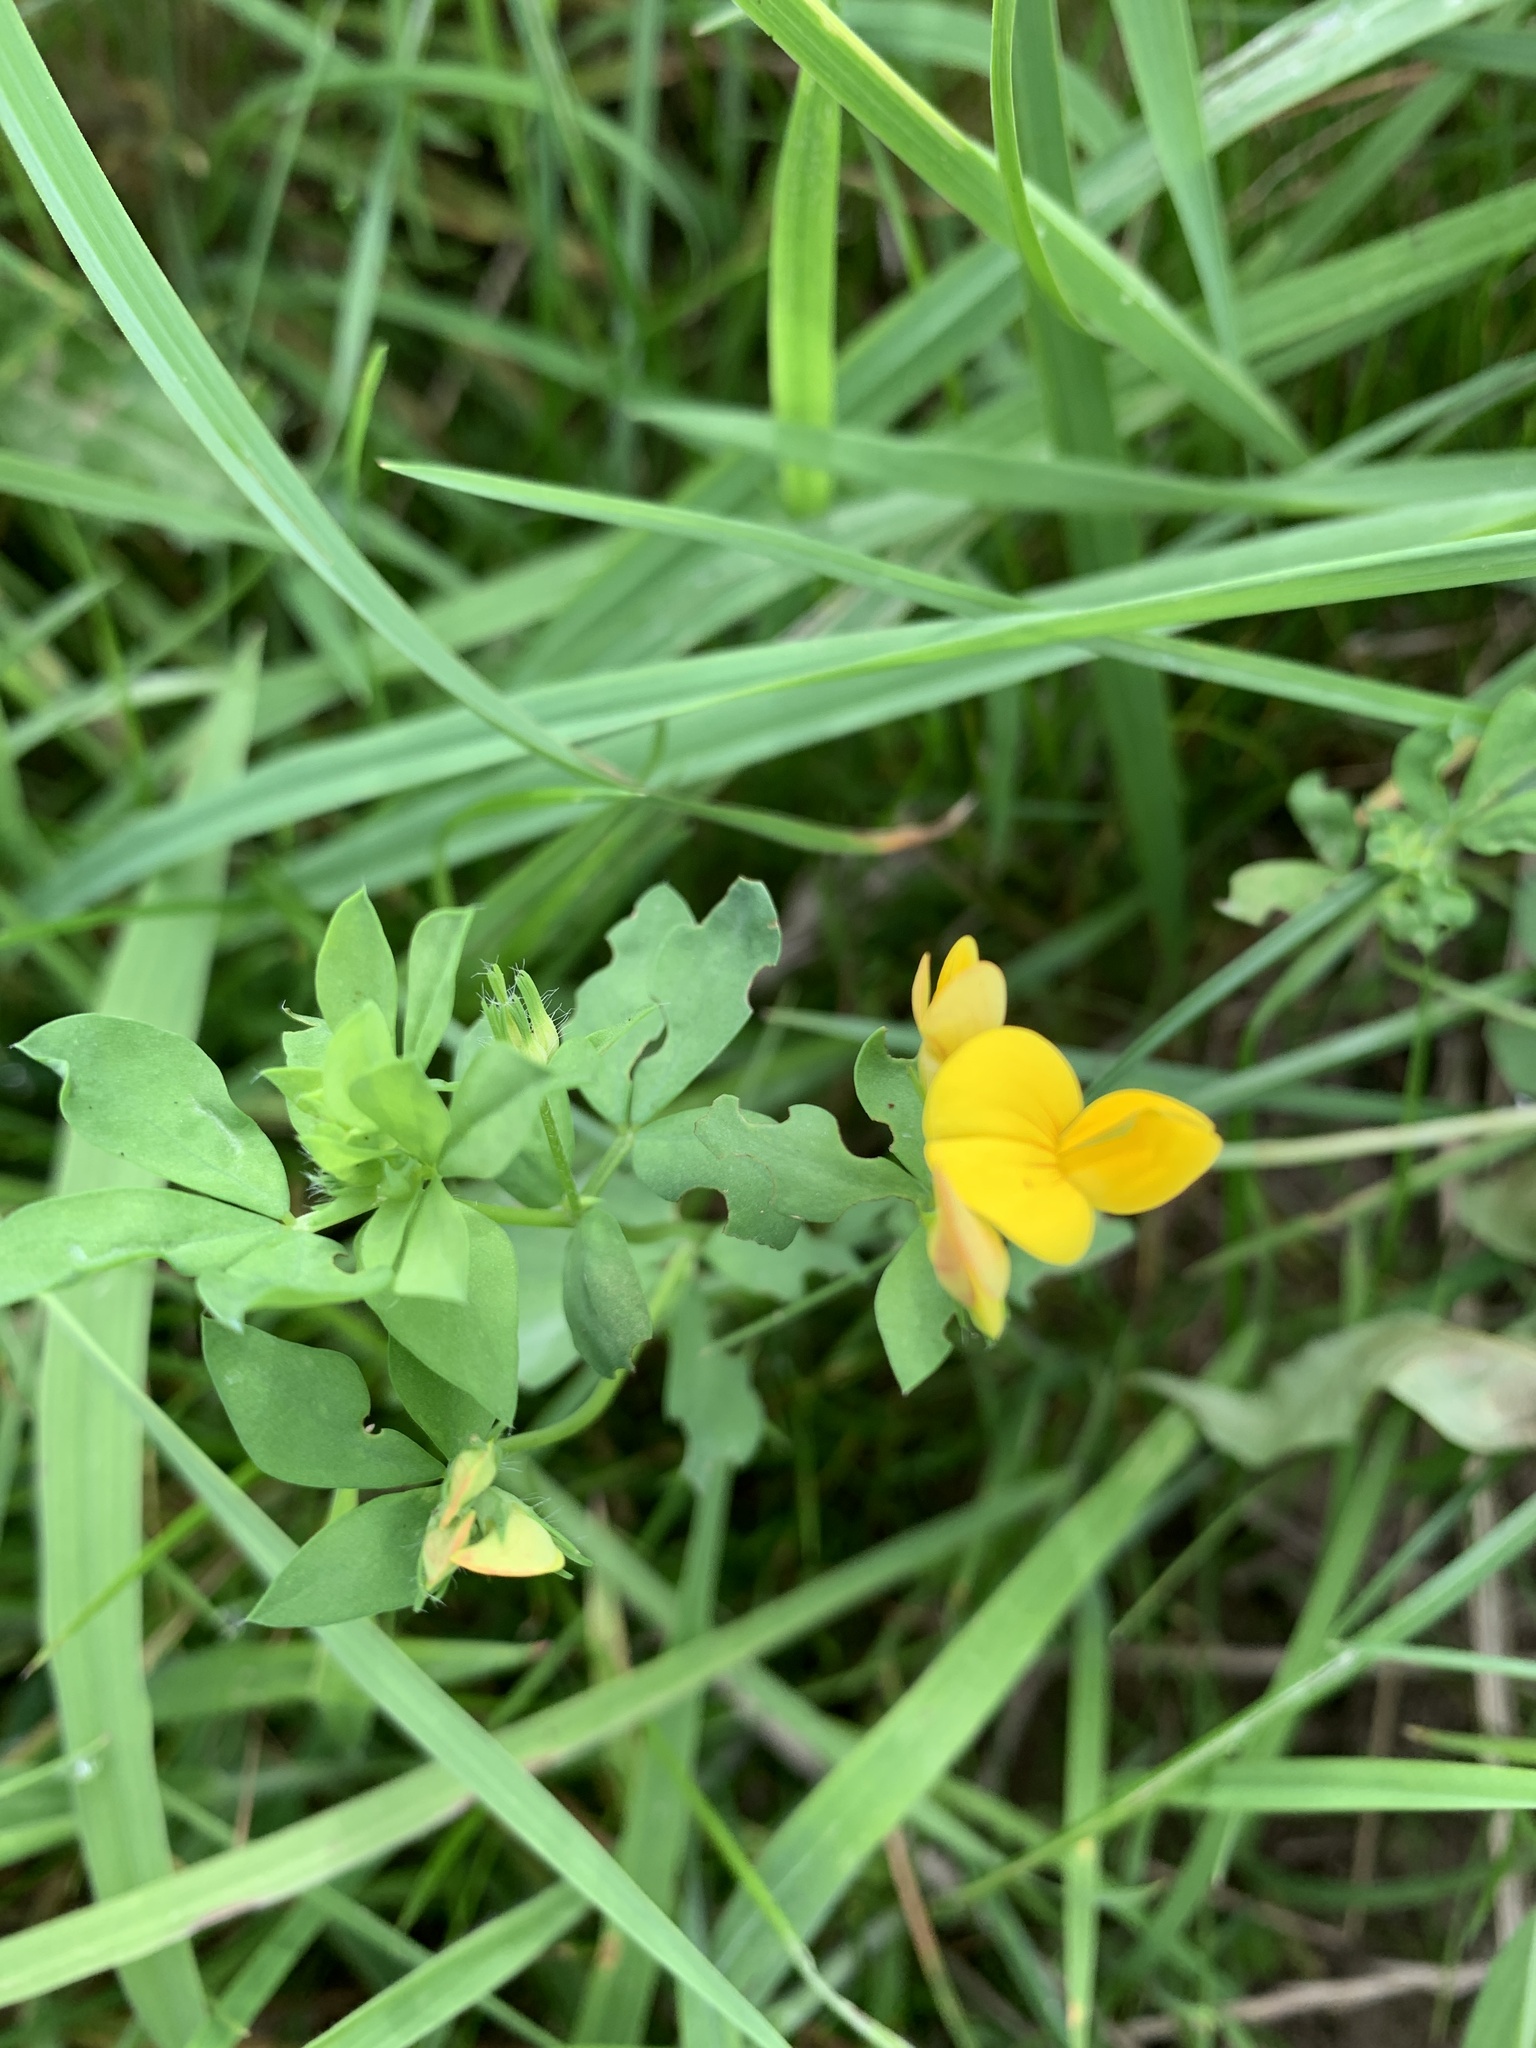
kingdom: Plantae
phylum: Tracheophyta
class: Magnoliopsida
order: Fabales
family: Fabaceae
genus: Lotus
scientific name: Lotus corniculatus
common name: Common bird's-foot-trefoil
